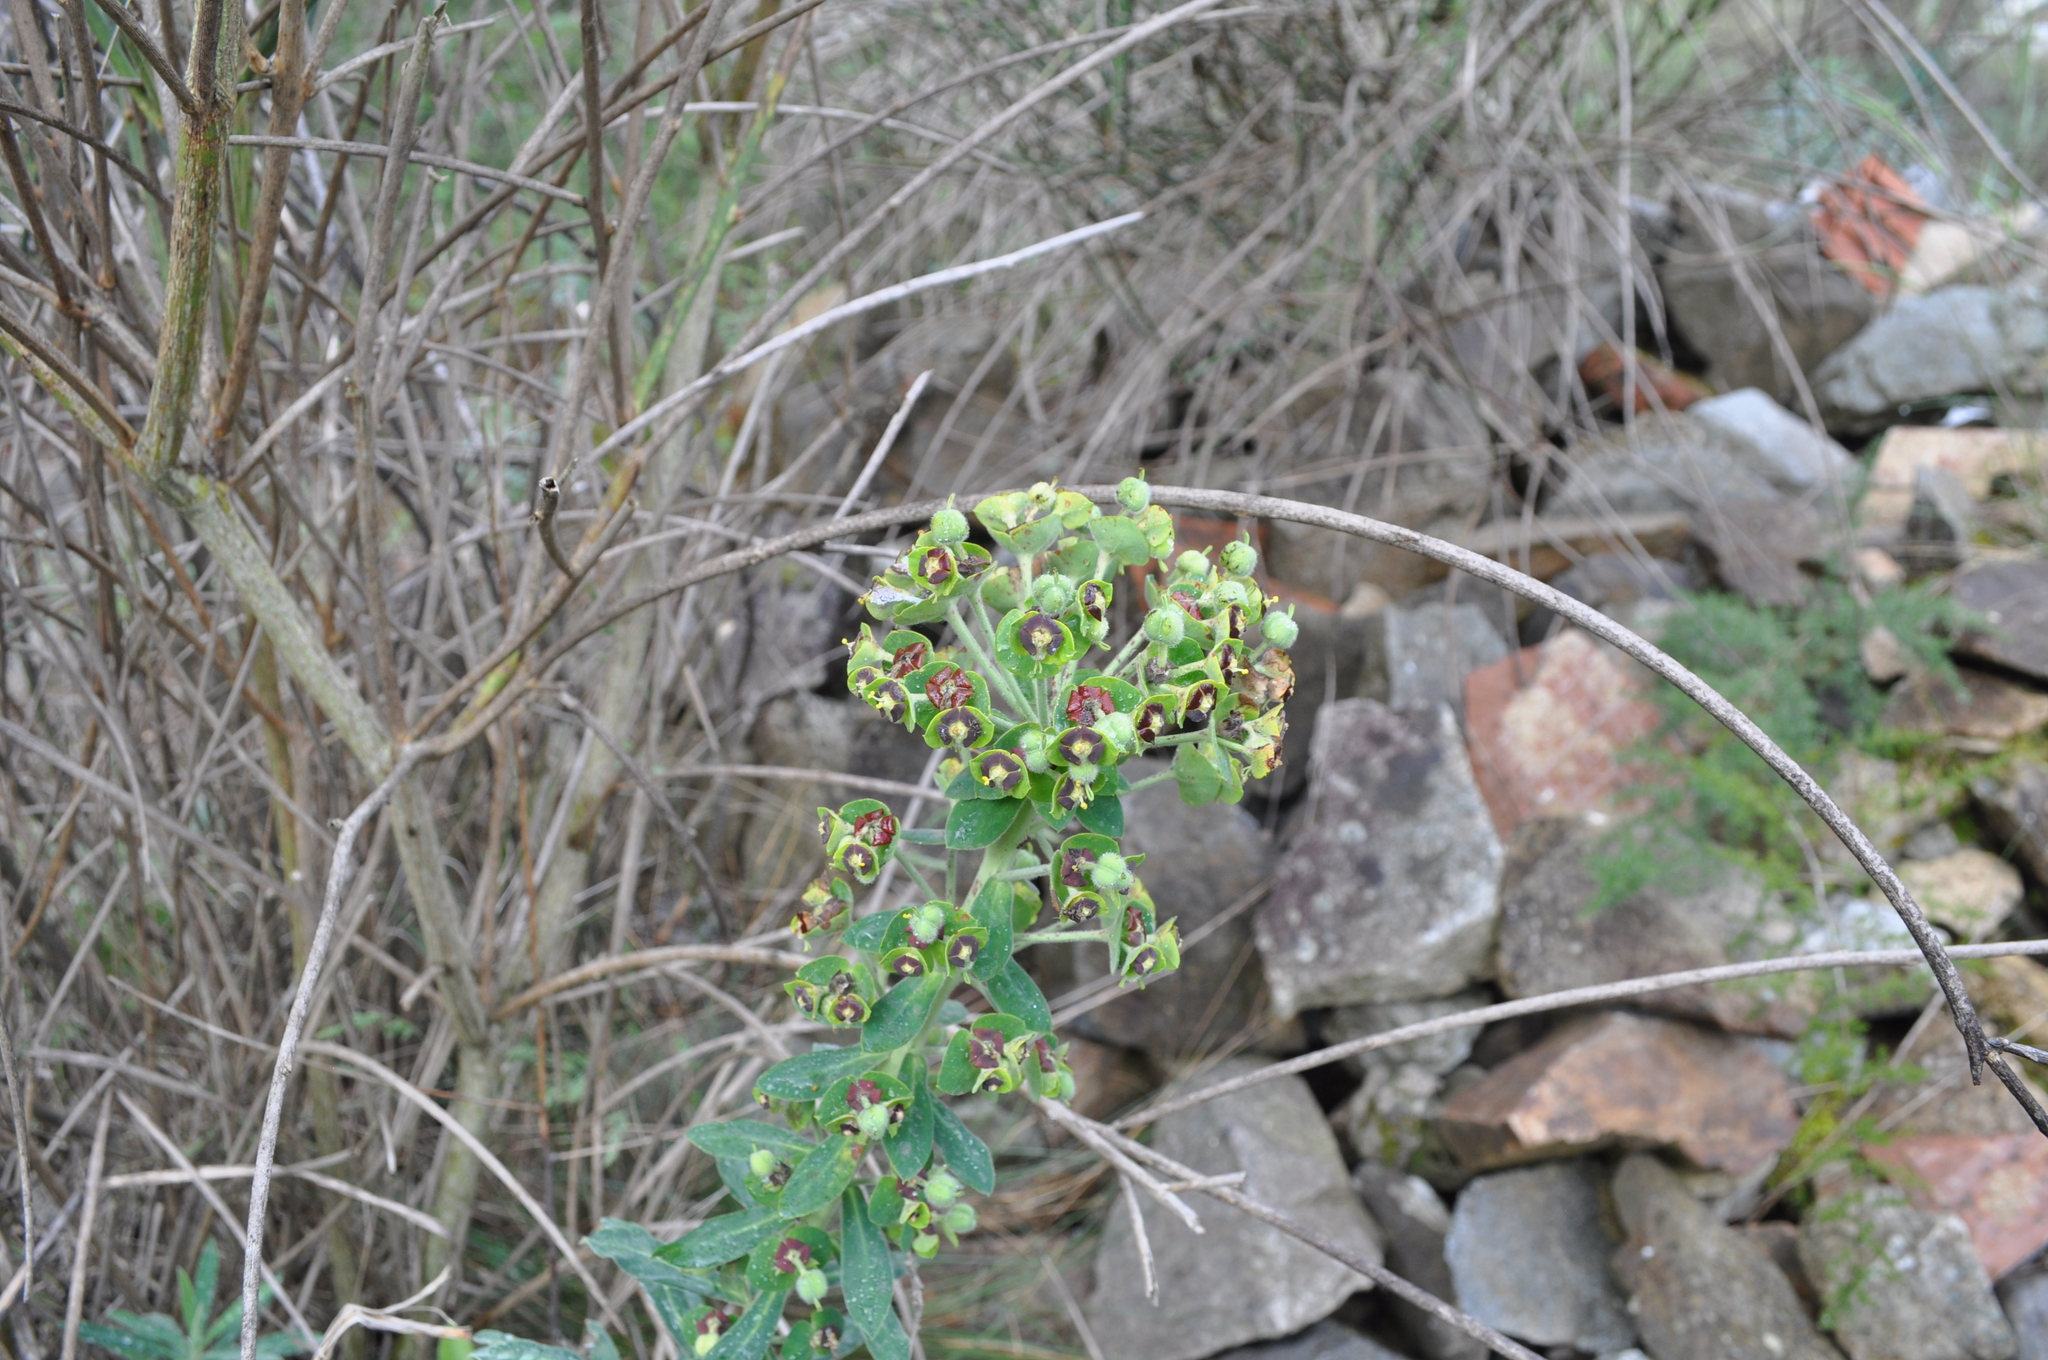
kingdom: Plantae
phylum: Tracheophyta
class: Magnoliopsida
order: Malpighiales
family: Euphorbiaceae
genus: Euphorbia
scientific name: Euphorbia characias
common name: Mediterranean spurge
